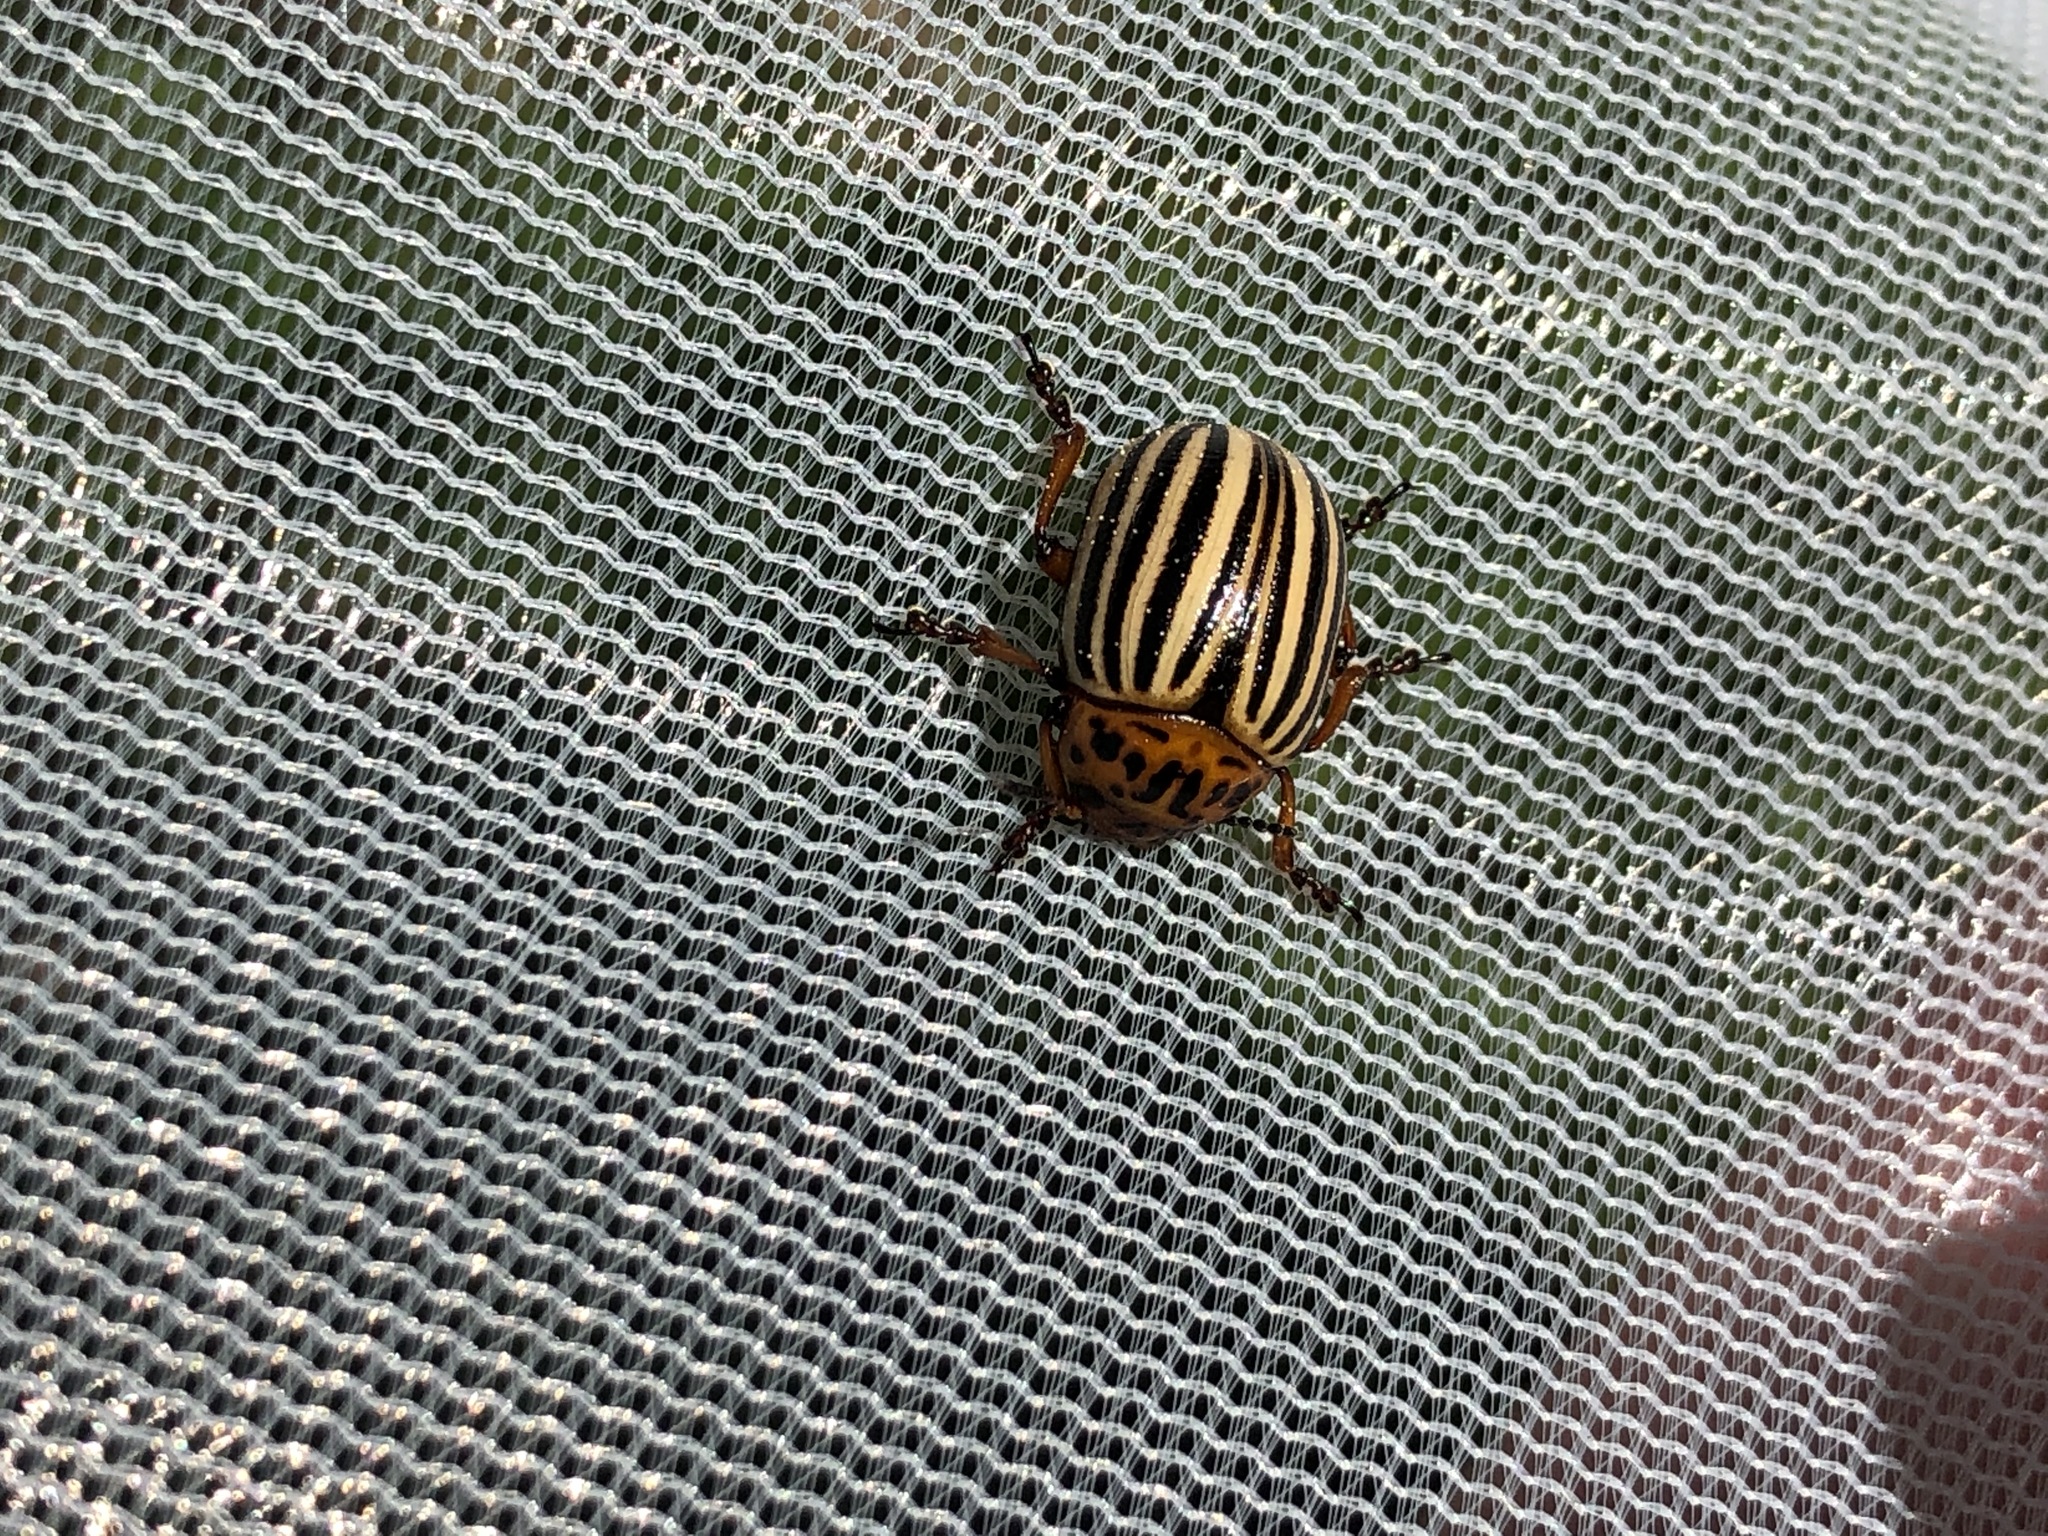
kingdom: Animalia
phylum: Arthropoda
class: Insecta
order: Coleoptera
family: Chrysomelidae
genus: Leptinotarsa
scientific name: Leptinotarsa decemlineata
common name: Colorado potato beetle
